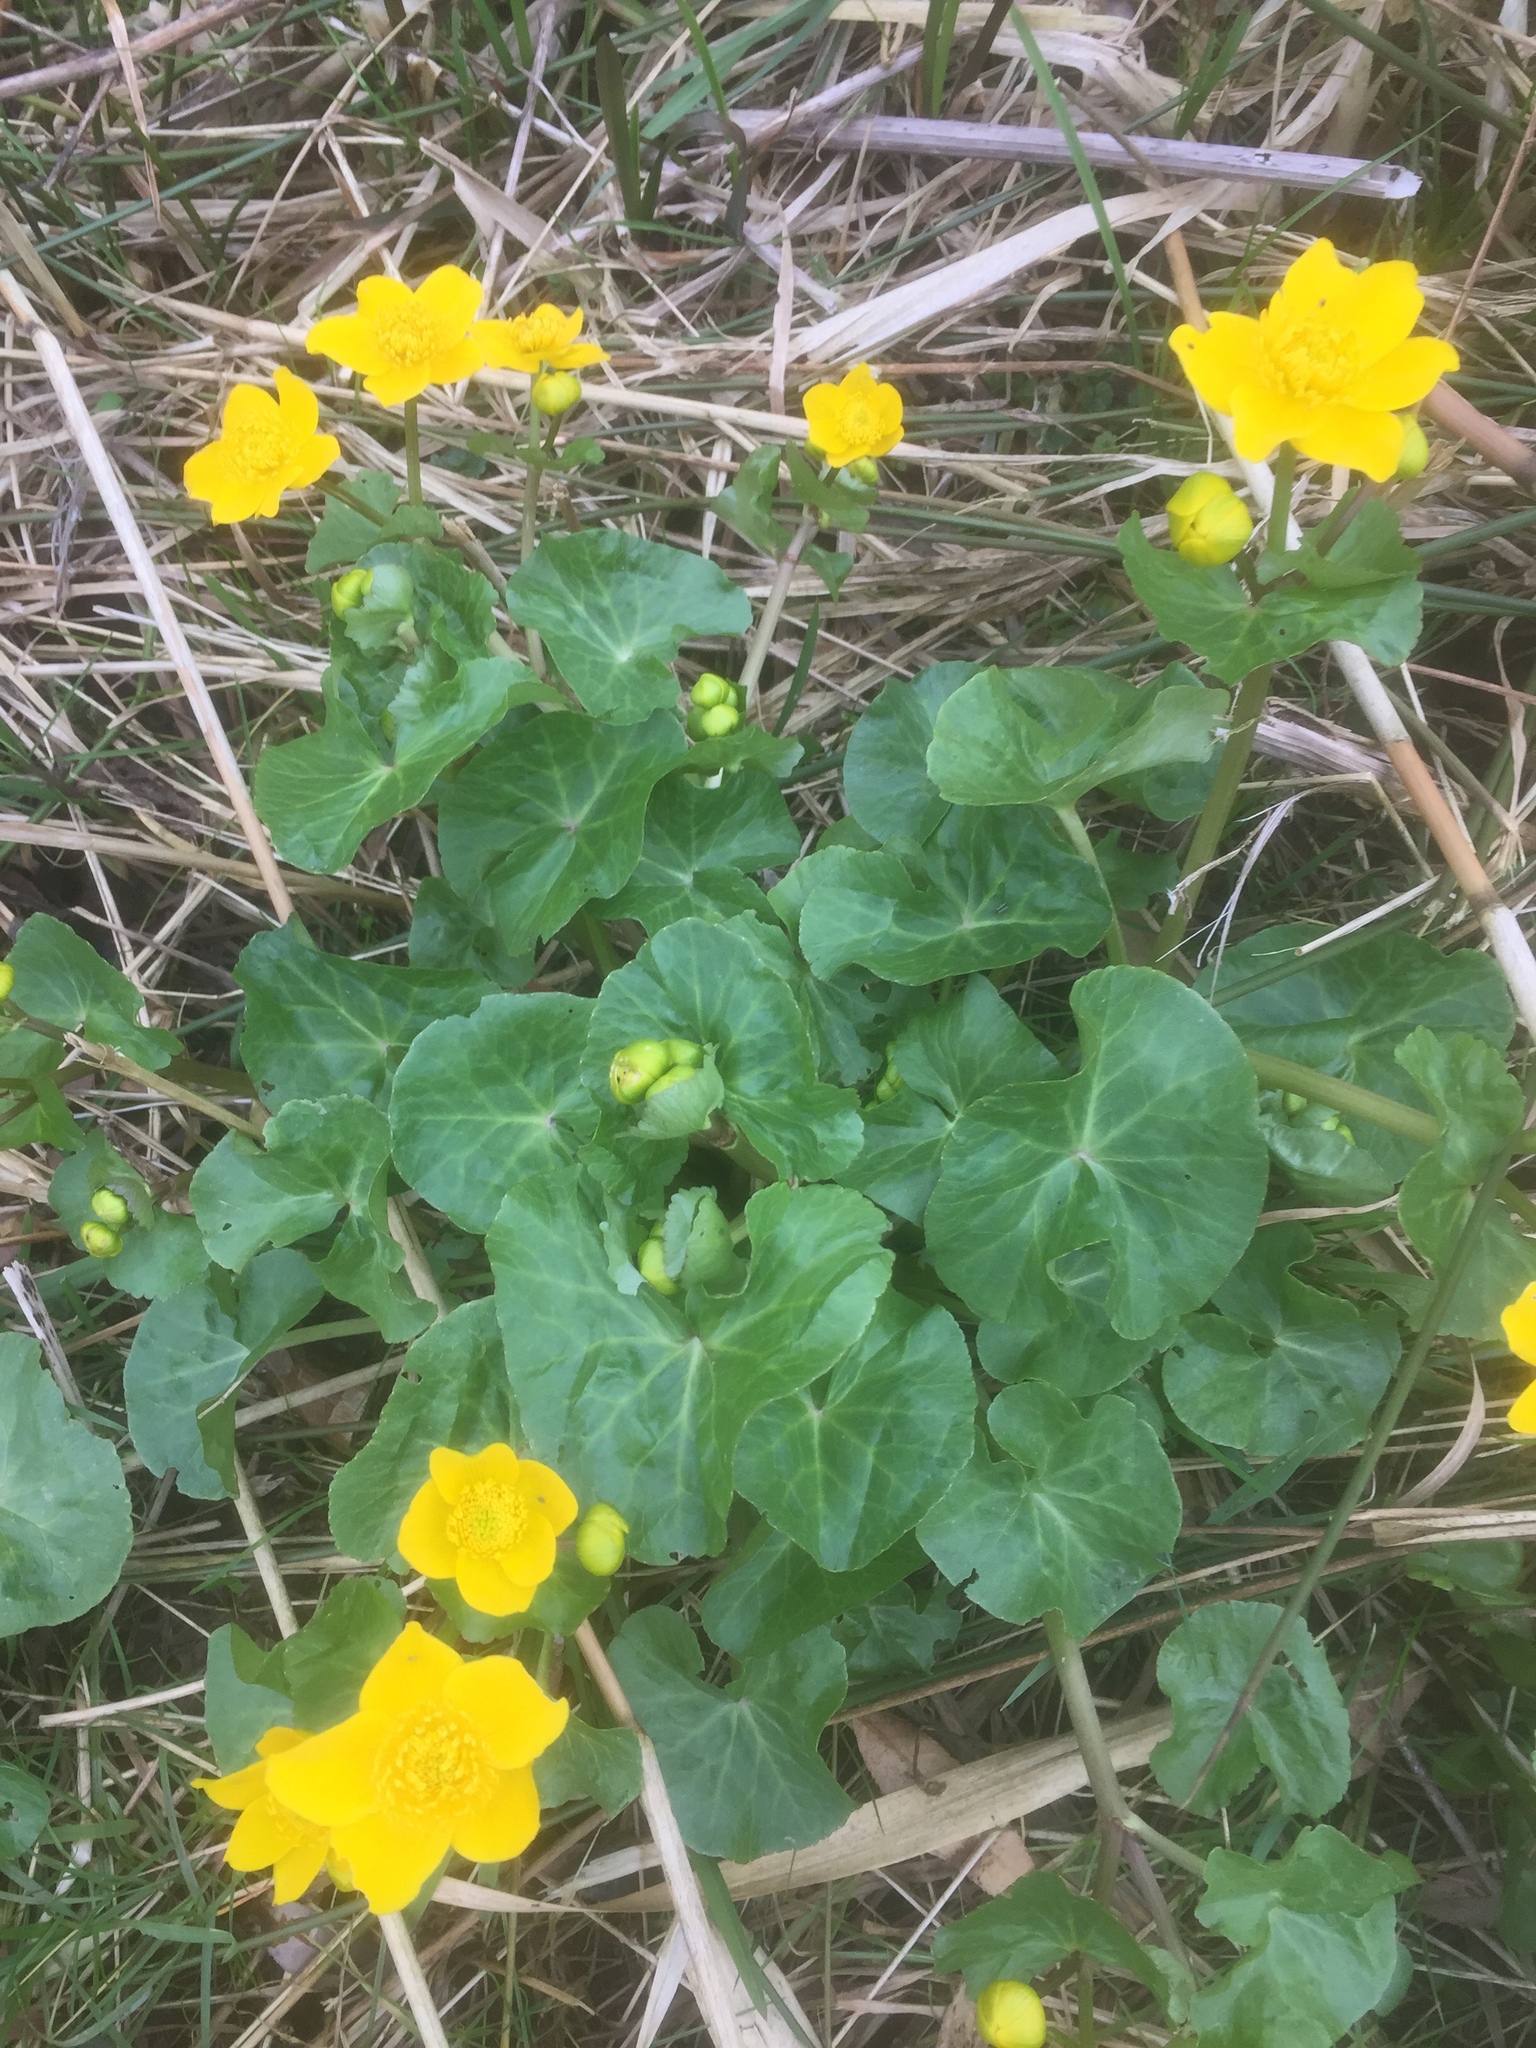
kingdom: Plantae
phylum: Tracheophyta
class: Magnoliopsida
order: Ranunculales
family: Ranunculaceae
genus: Caltha
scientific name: Caltha palustris
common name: Marsh marigold
